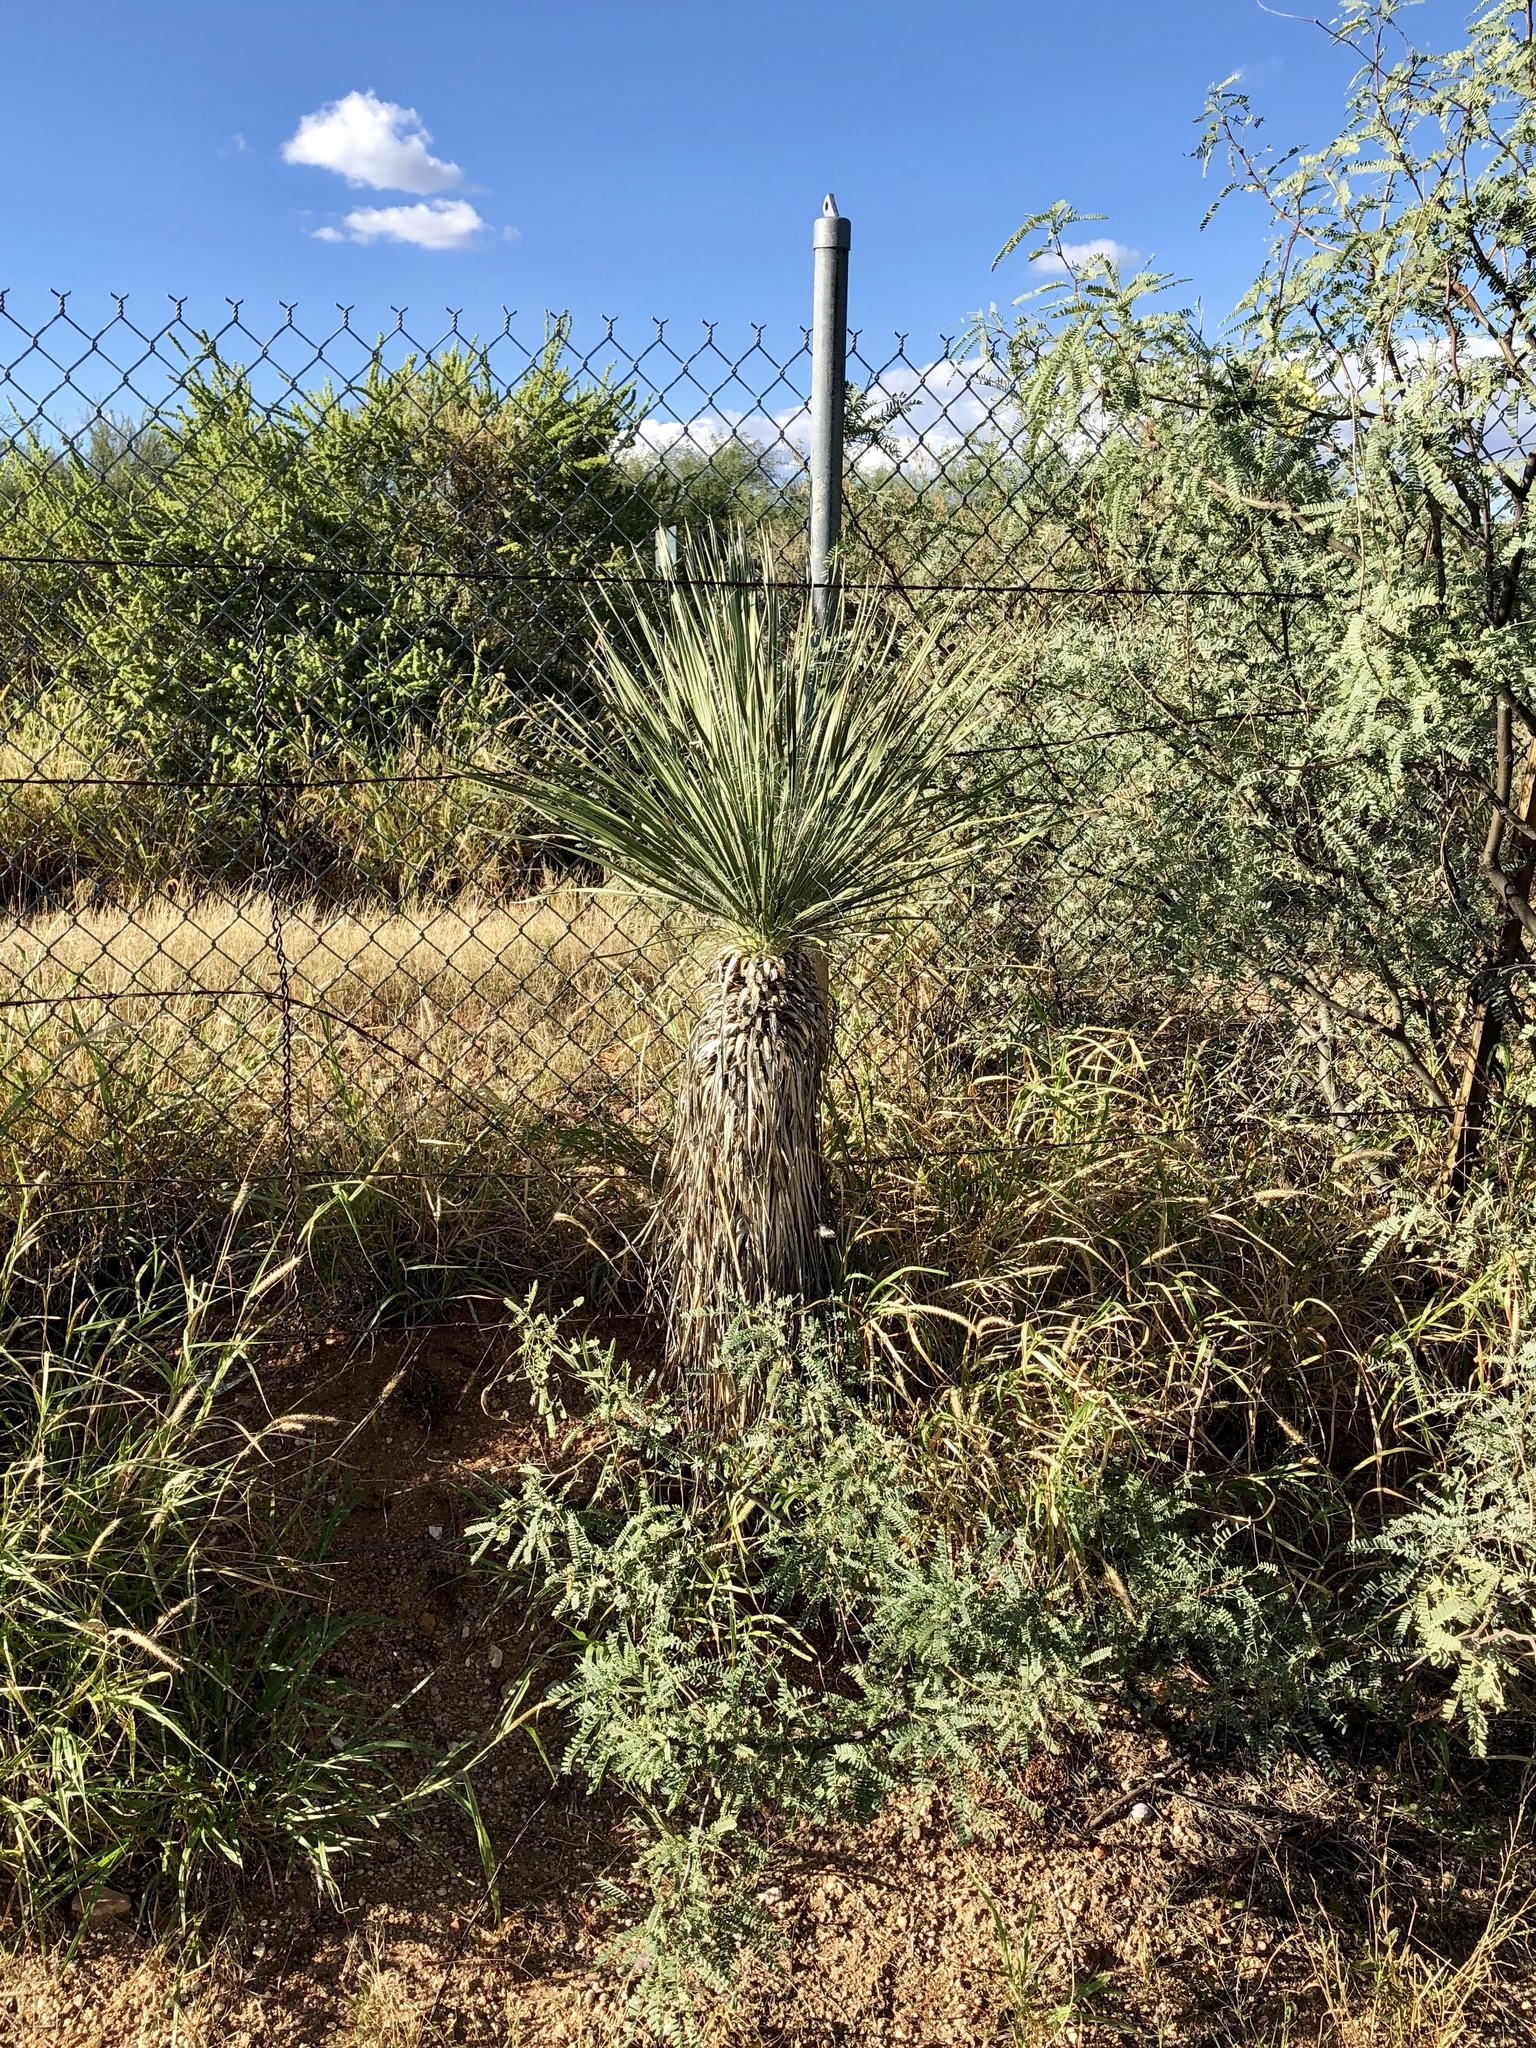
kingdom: Plantae
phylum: Tracheophyta
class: Liliopsida
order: Asparagales
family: Asparagaceae
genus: Yucca
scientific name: Yucca elata
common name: Palmella
